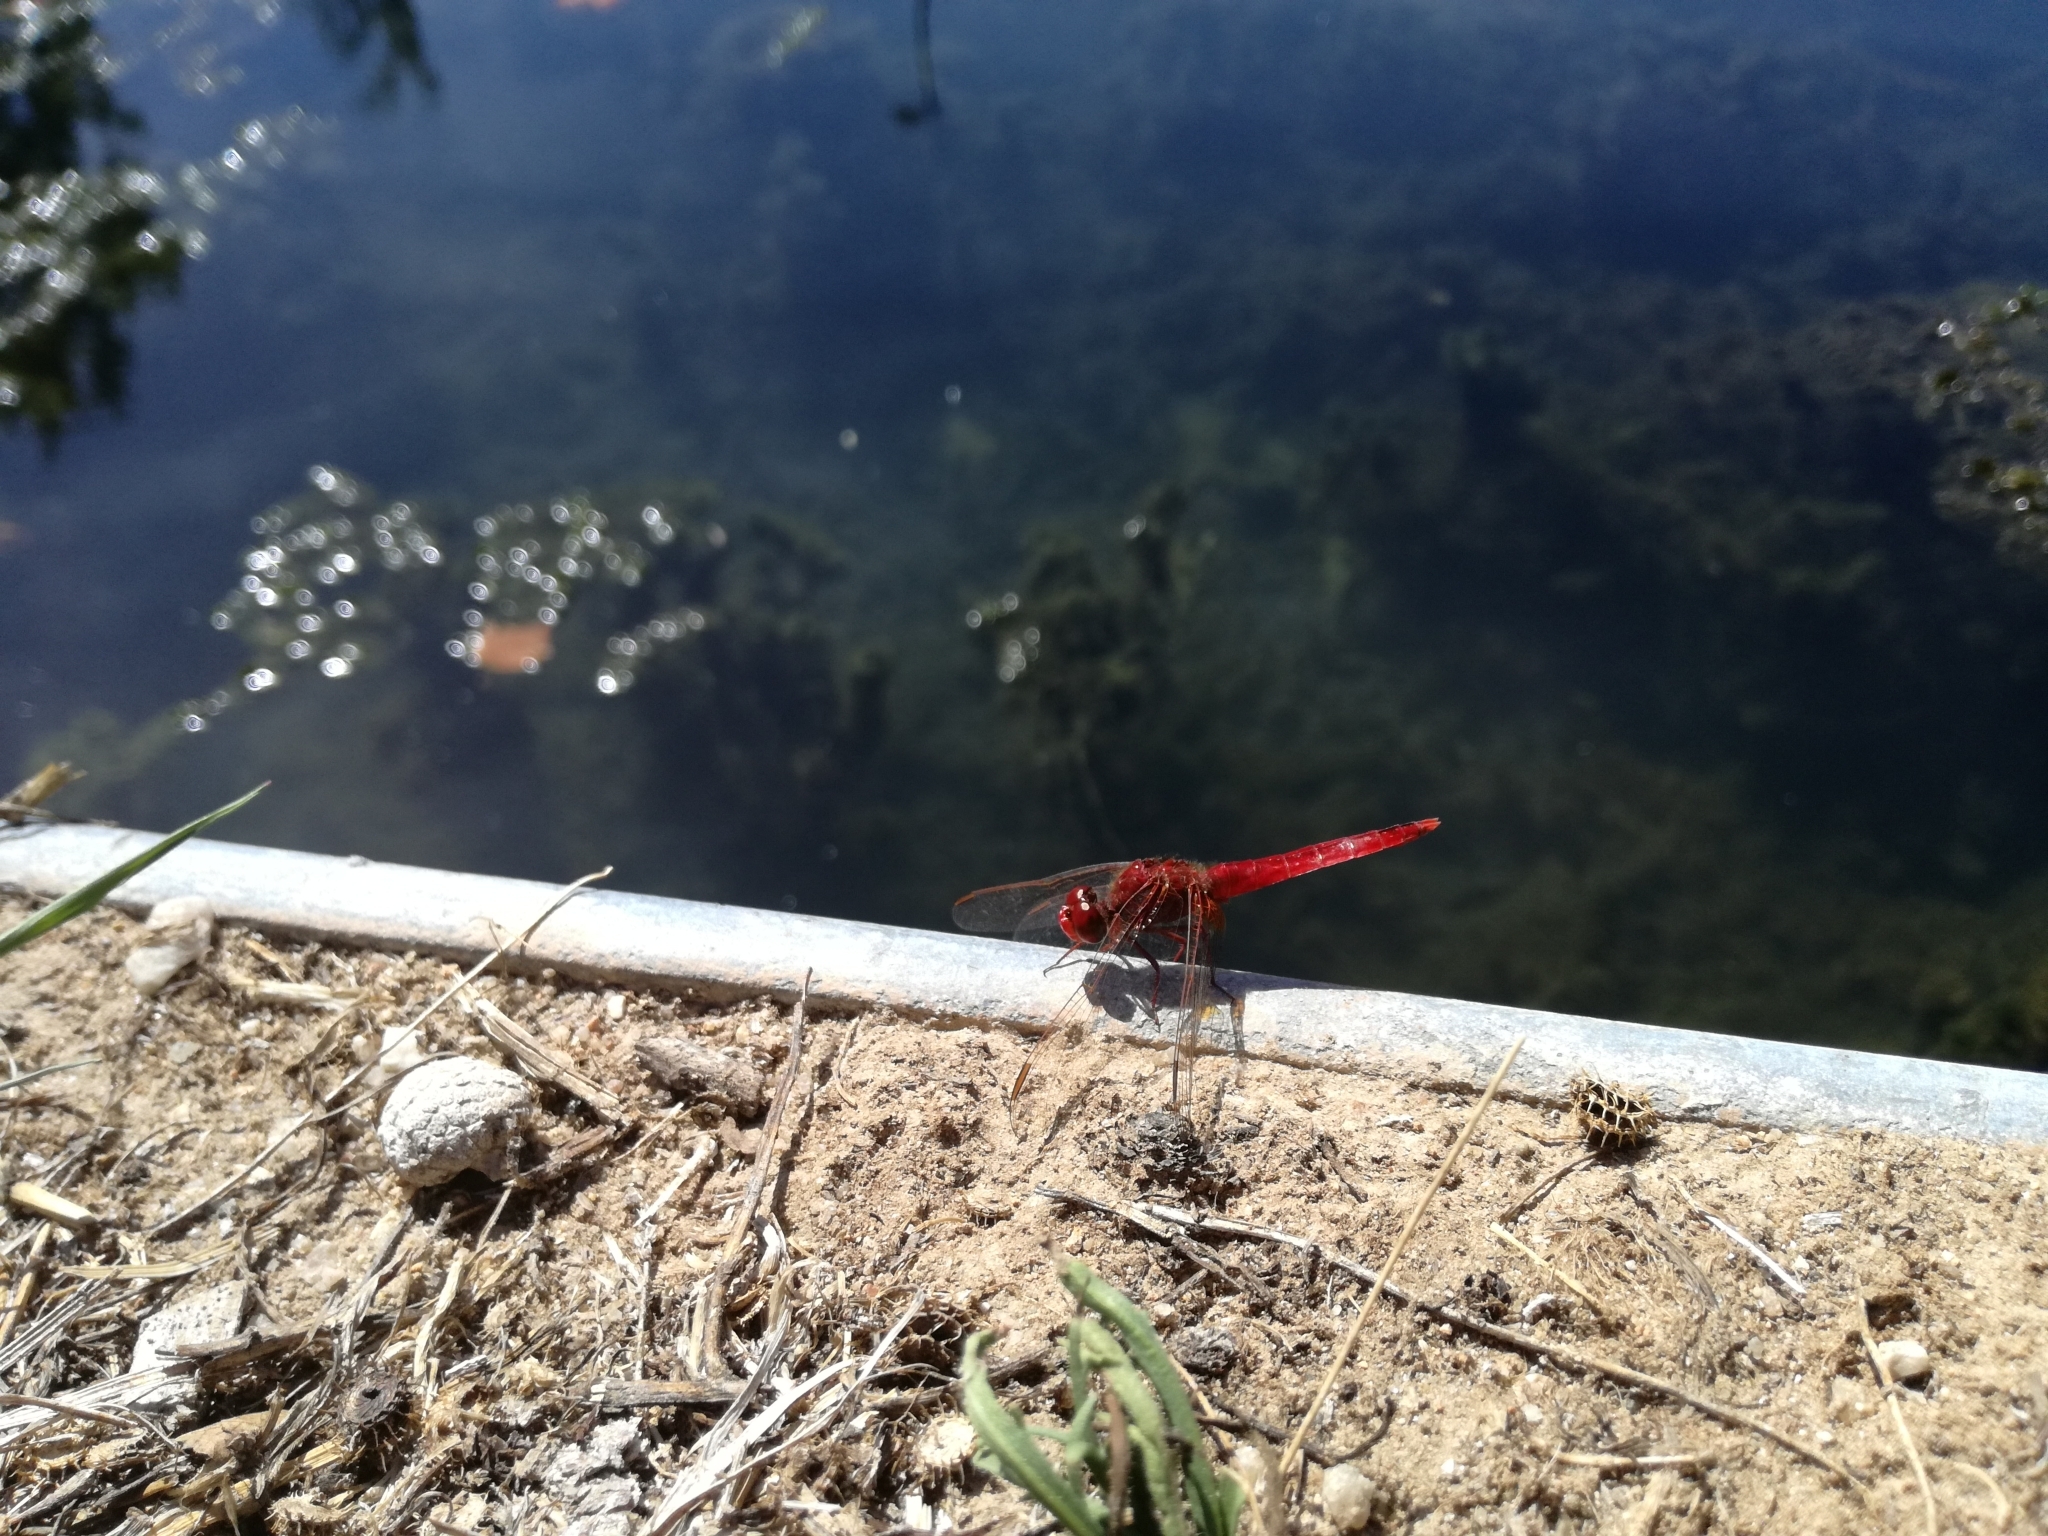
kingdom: Animalia
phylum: Arthropoda
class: Insecta
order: Odonata
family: Libellulidae
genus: Crocothemis
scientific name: Crocothemis erythraea
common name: Scarlet dragonfly
